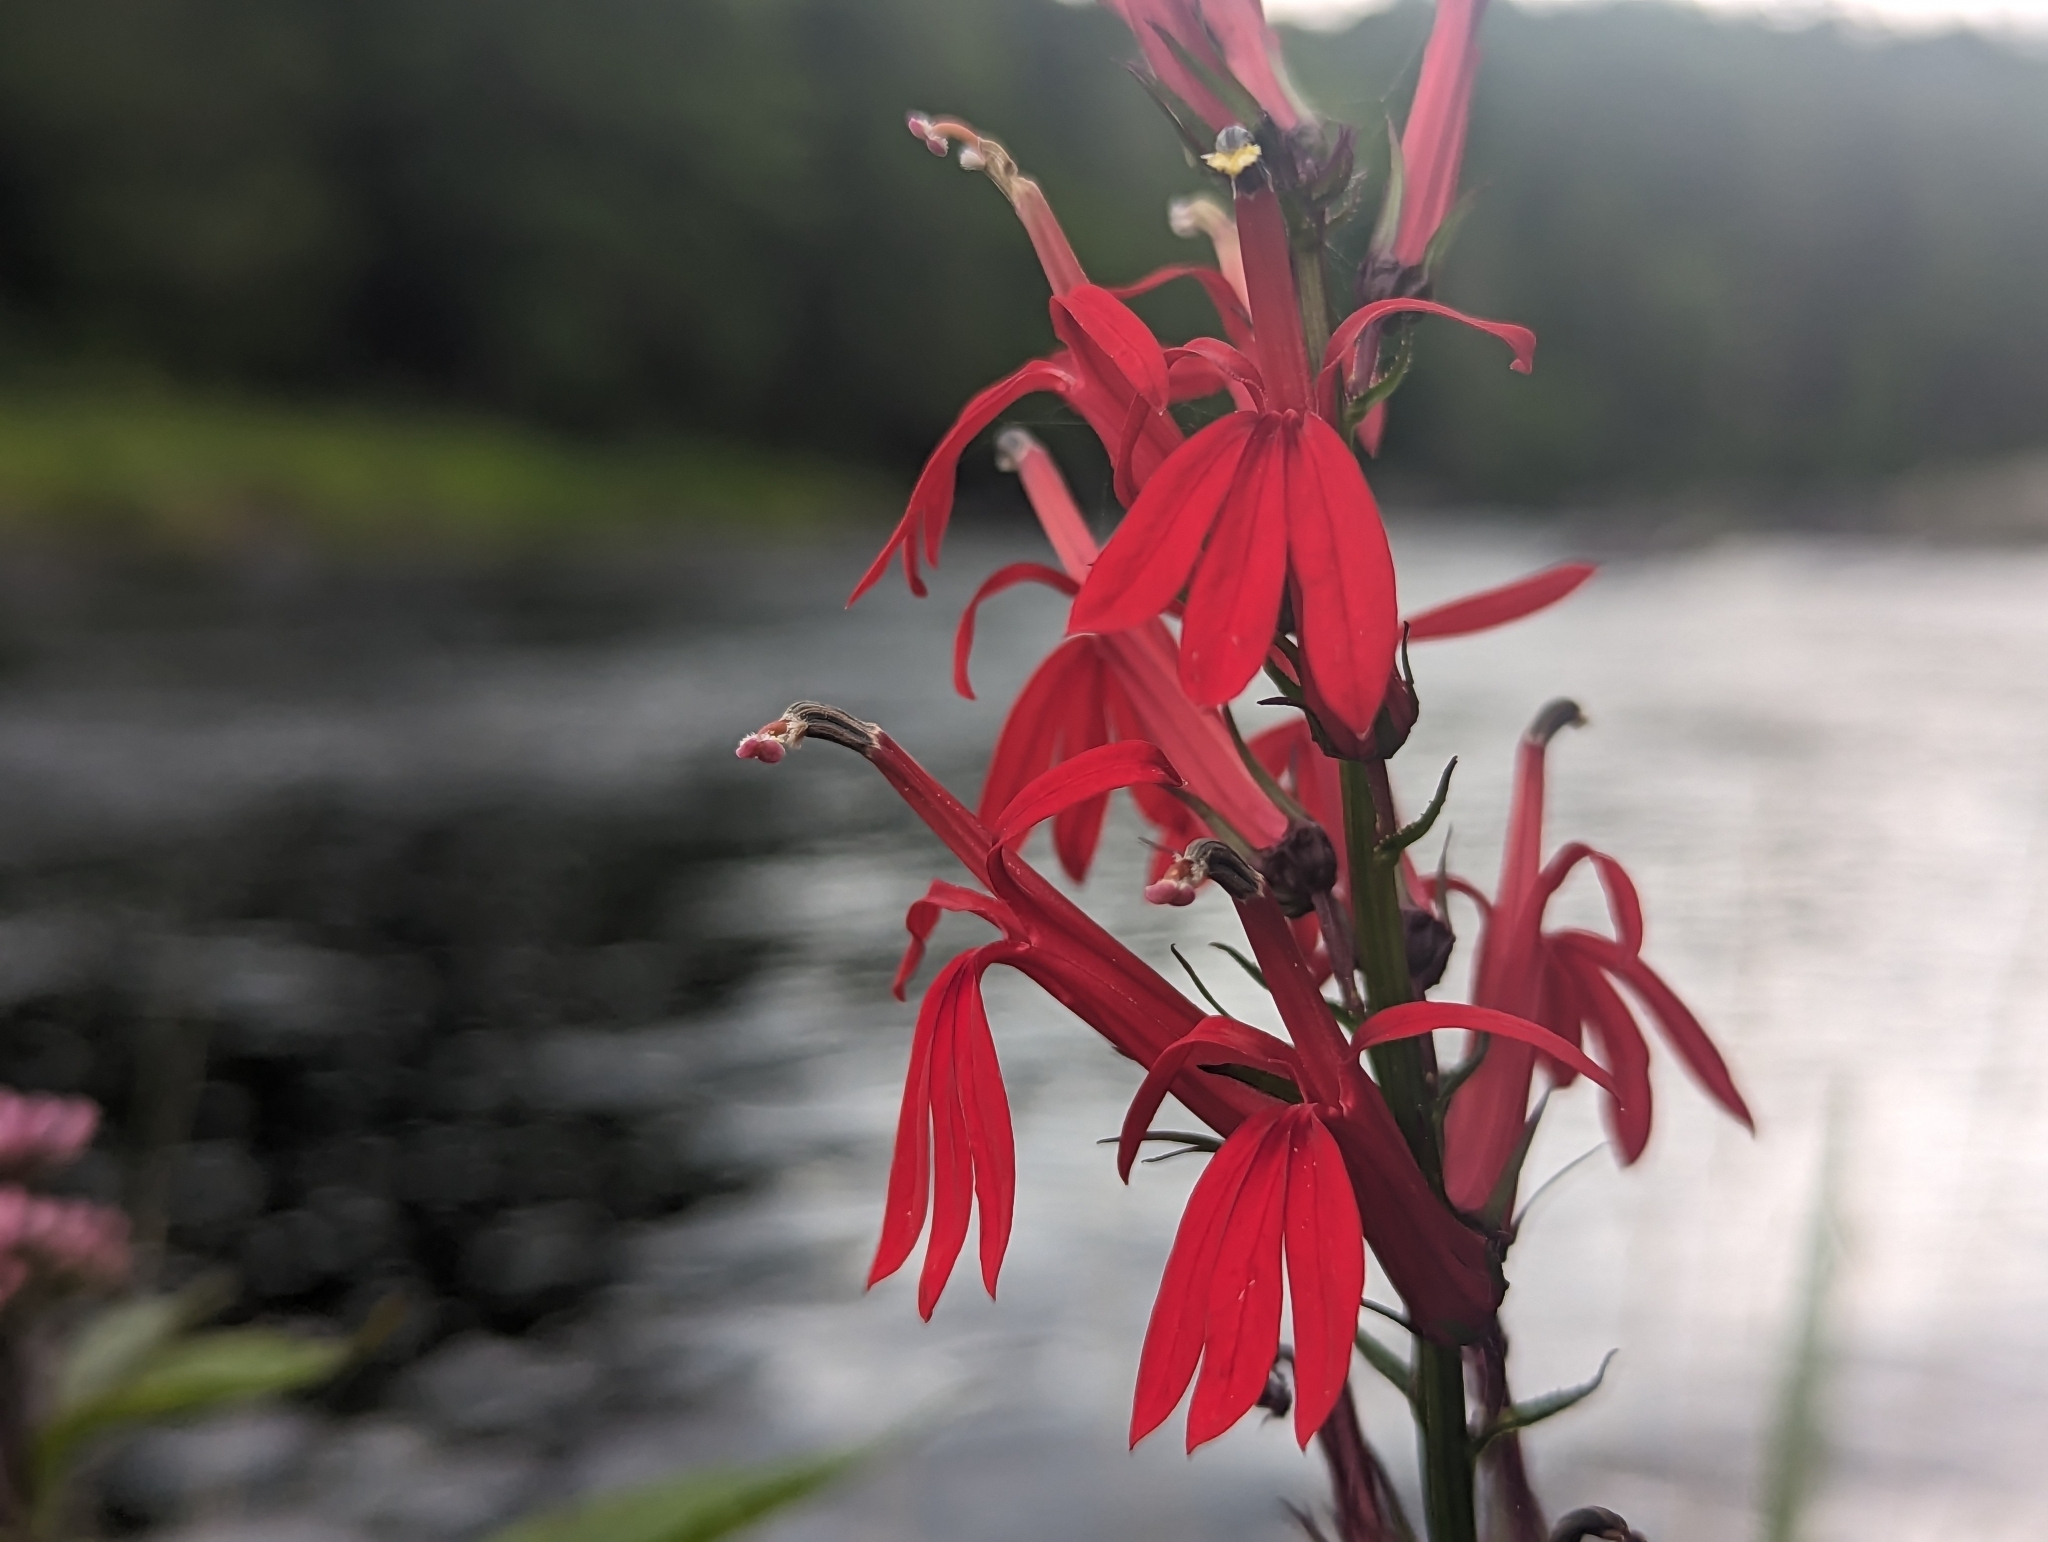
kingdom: Plantae
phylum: Tracheophyta
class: Magnoliopsida
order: Asterales
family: Campanulaceae
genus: Lobelia
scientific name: Lobelia cardinalis
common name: Cardinal flower
